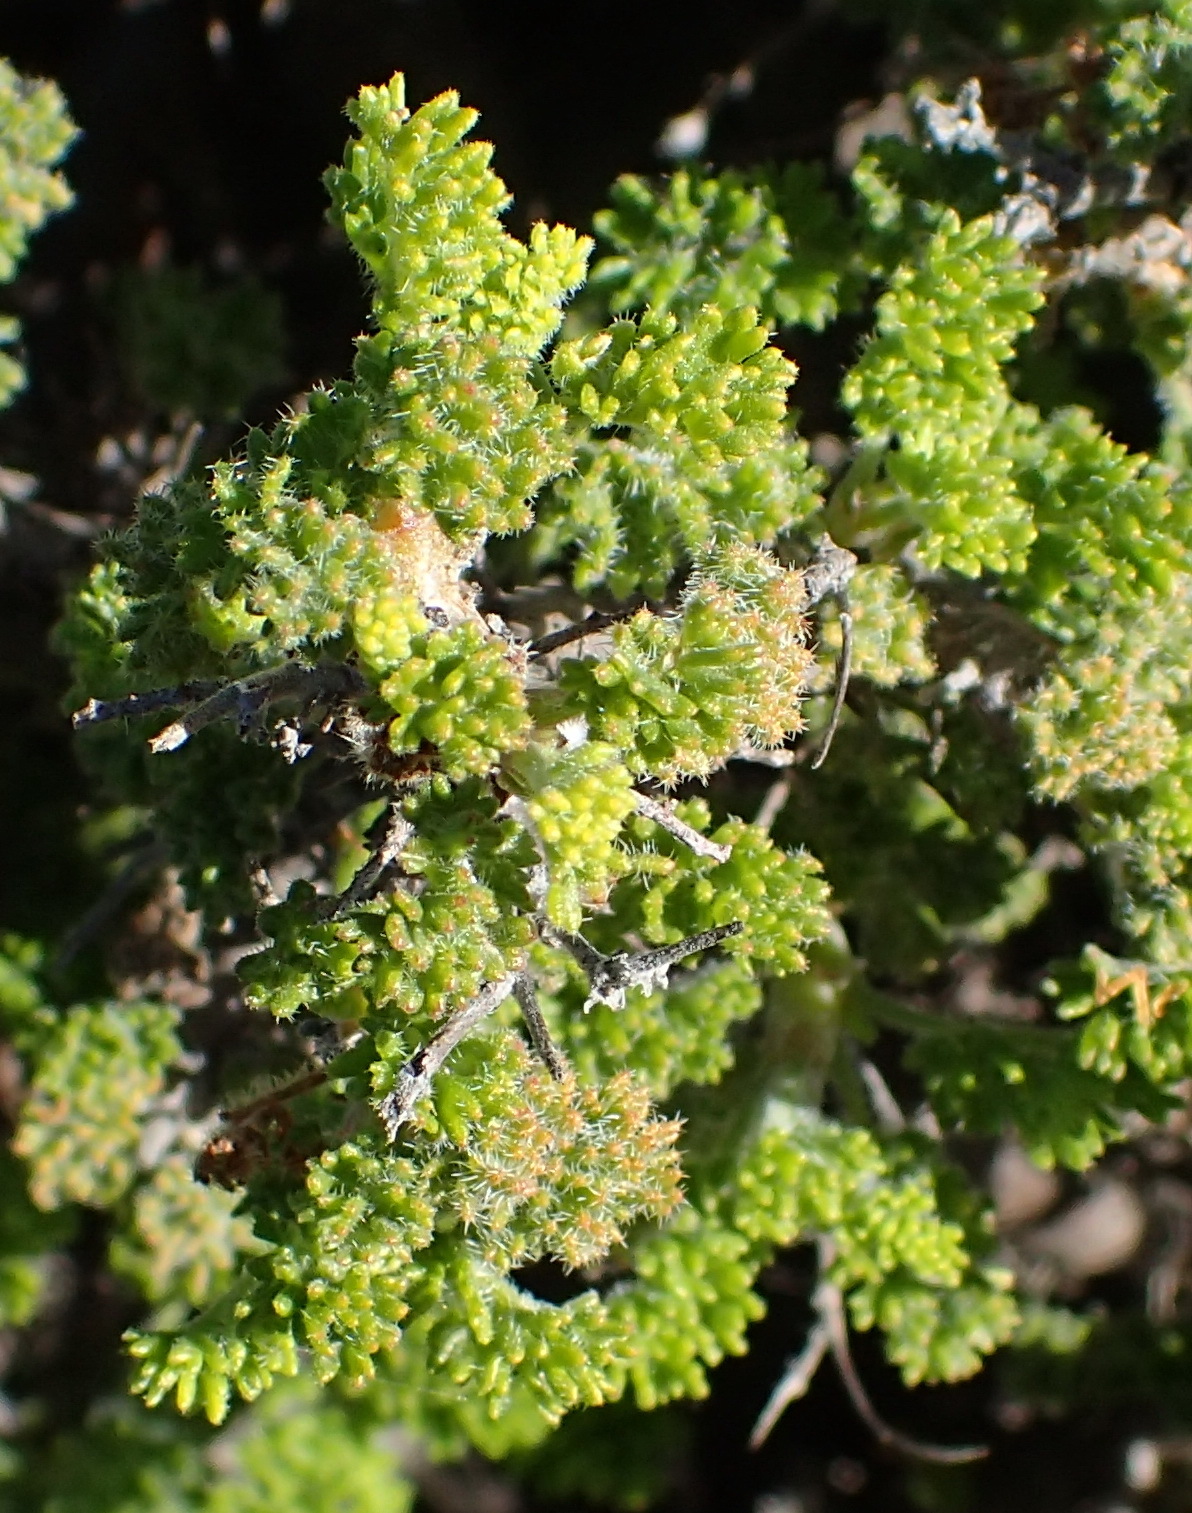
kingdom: Plantae
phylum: Tracheophyta
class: Magnoliopsida
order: Geraniales
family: Geraniaceae
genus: Pelargonium
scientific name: Pelargonium alternans
